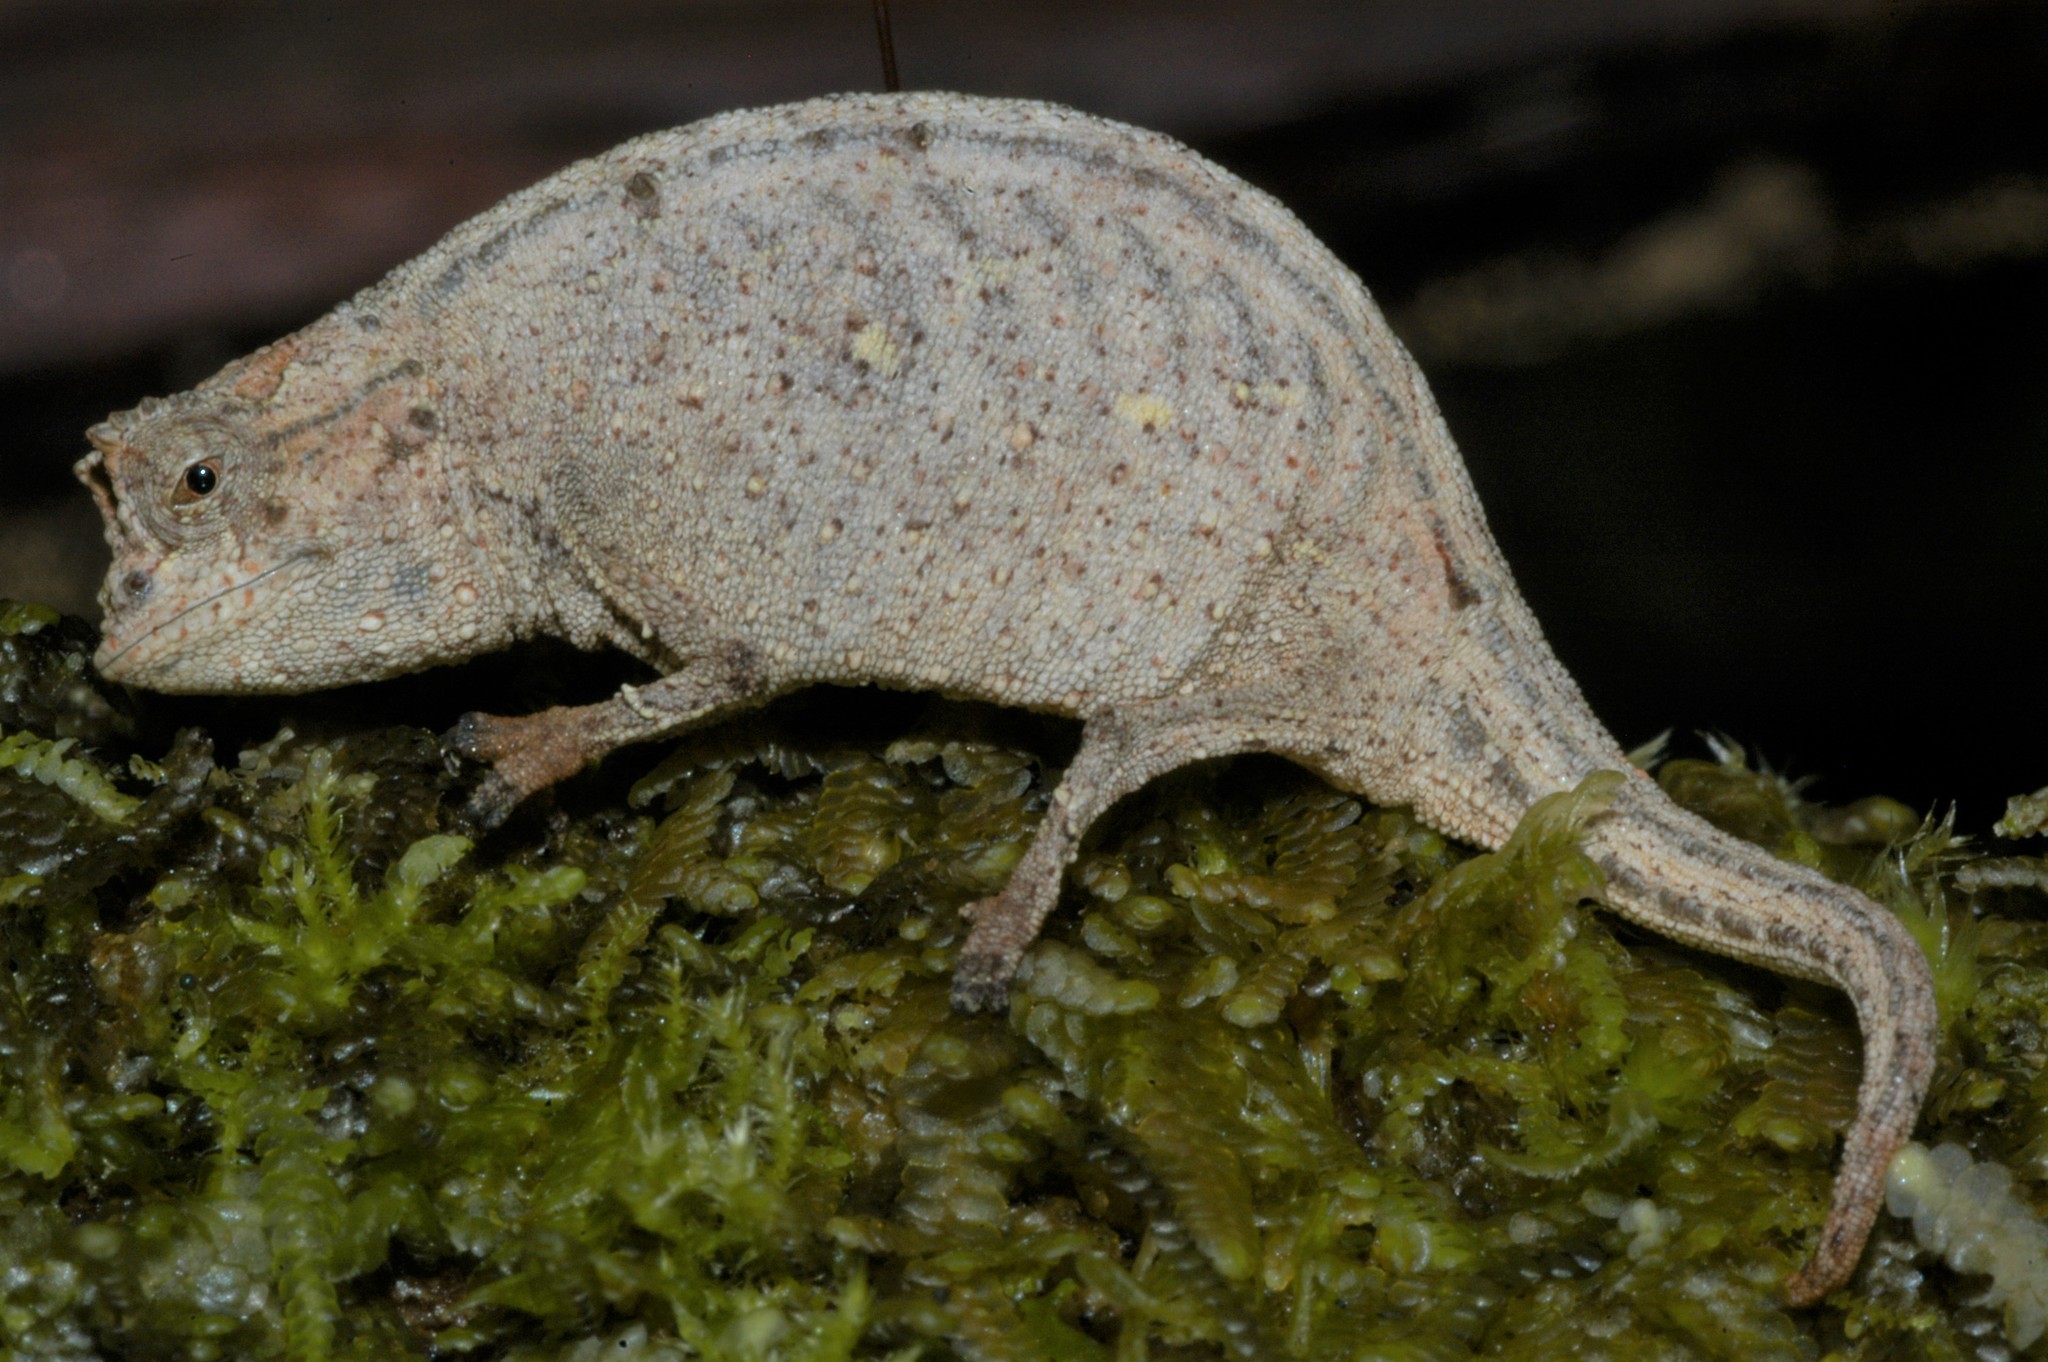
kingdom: Animalia
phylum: Chordata
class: Squamata
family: Chamaeleonidae
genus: Brookesia
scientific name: Brookesia ramanantsoai
